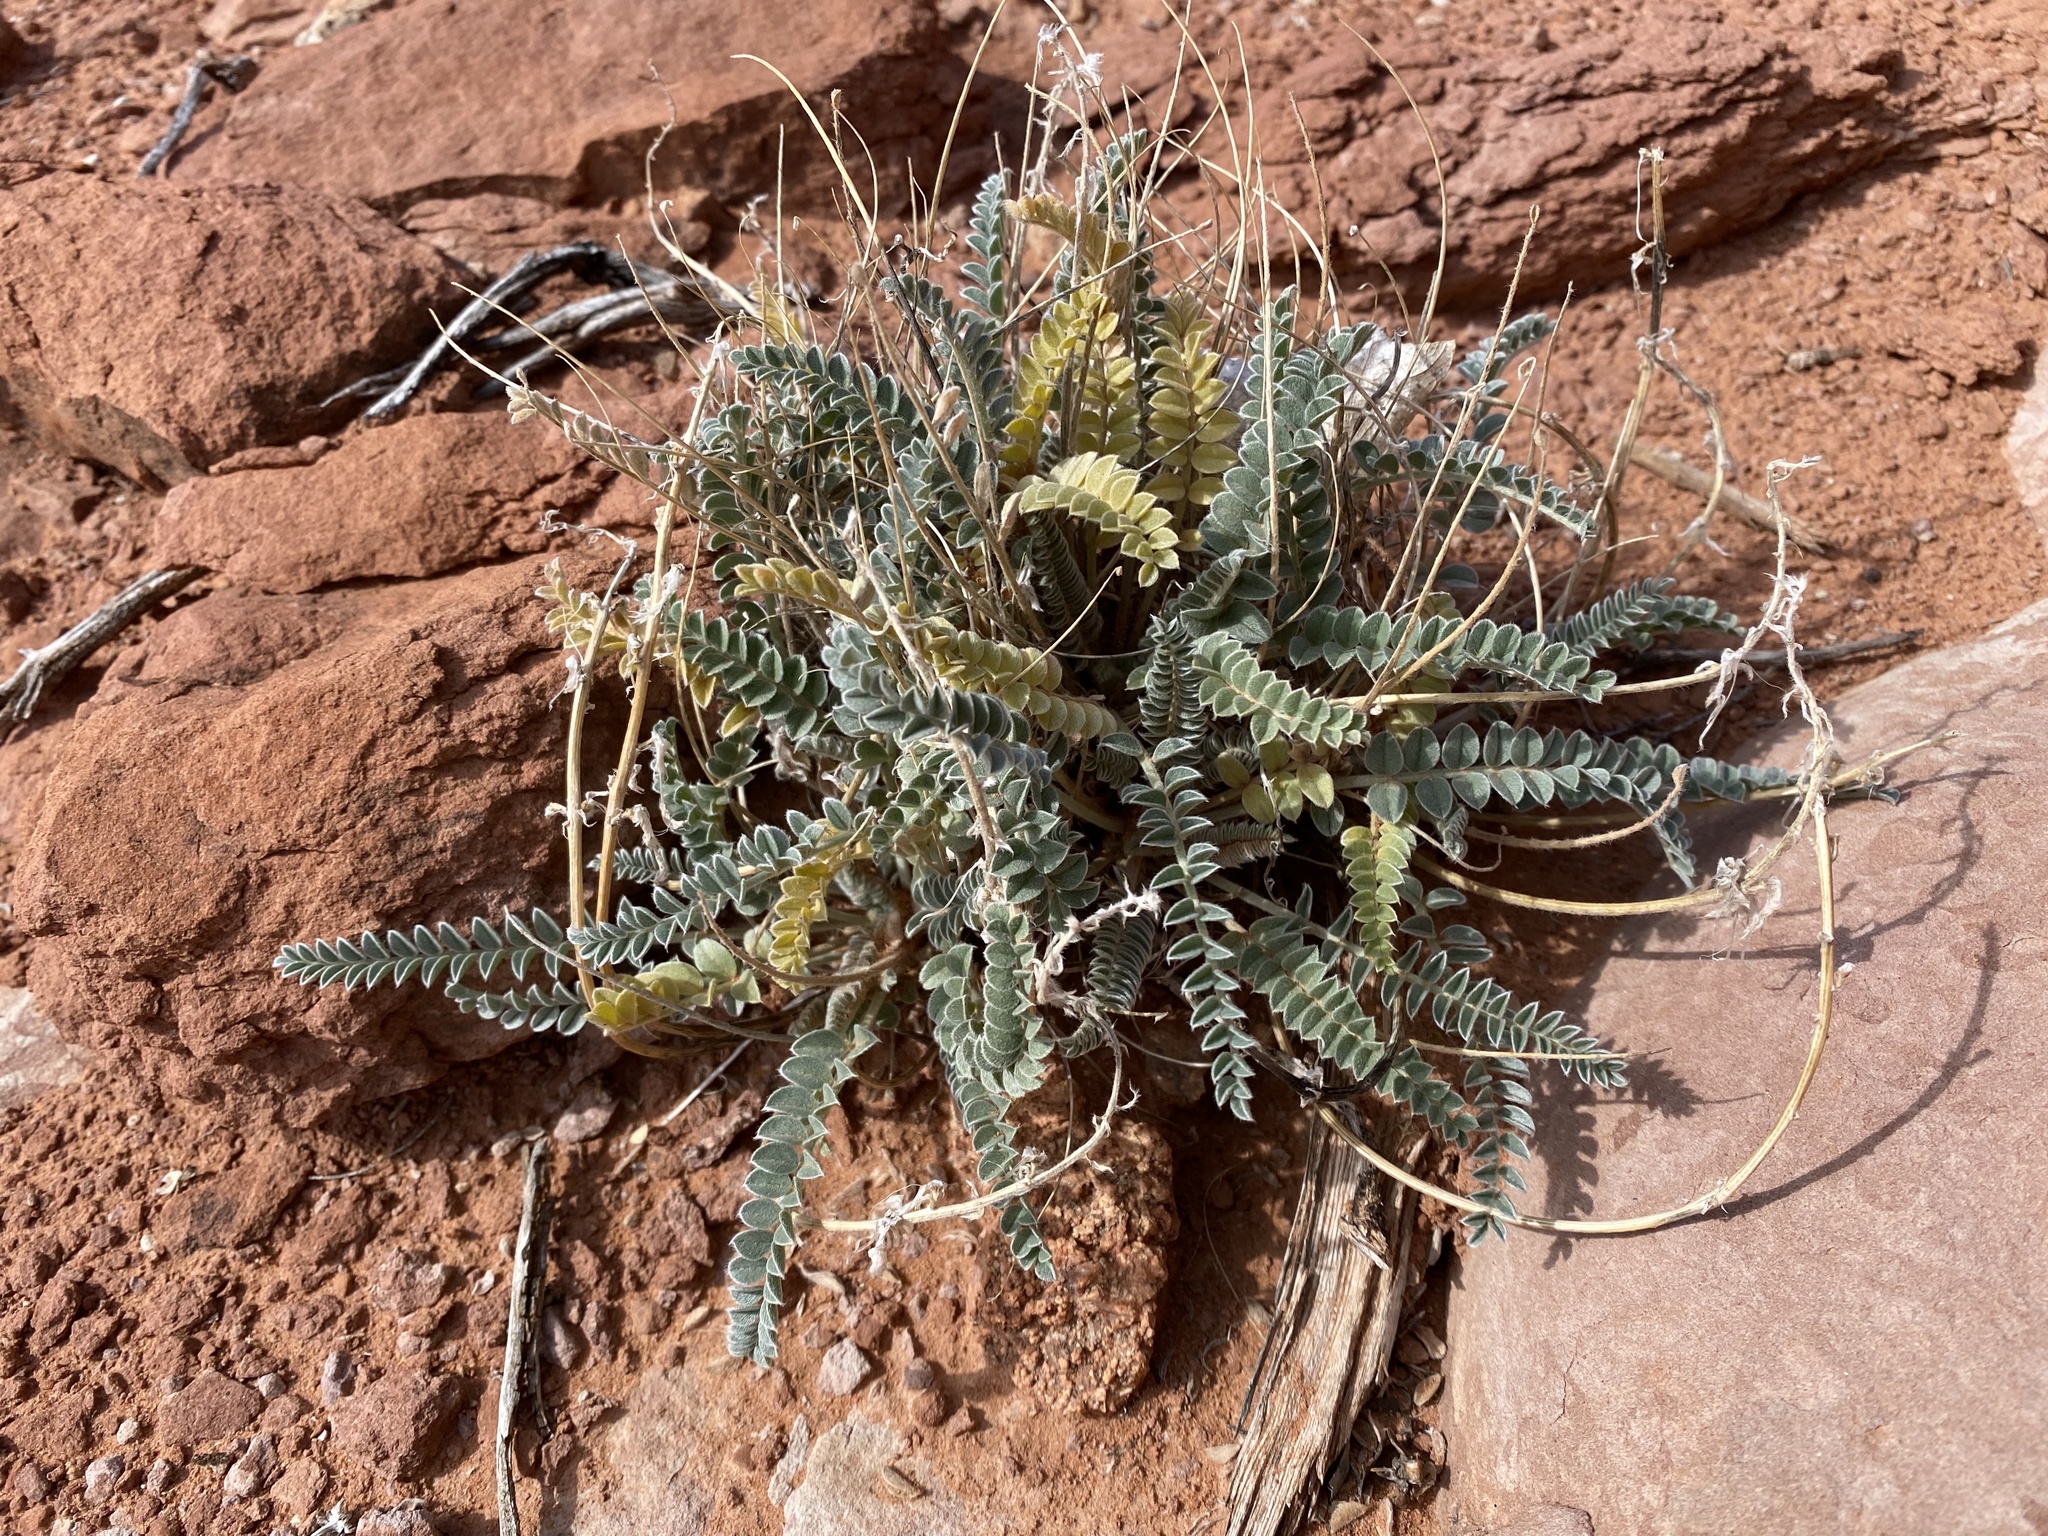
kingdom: Plantae
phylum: Tracheophyta
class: Magnoliopsida
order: Fabales
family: Fabaceae
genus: Astragalus
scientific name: Astragalus mollissimus
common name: Woolly locoweed
